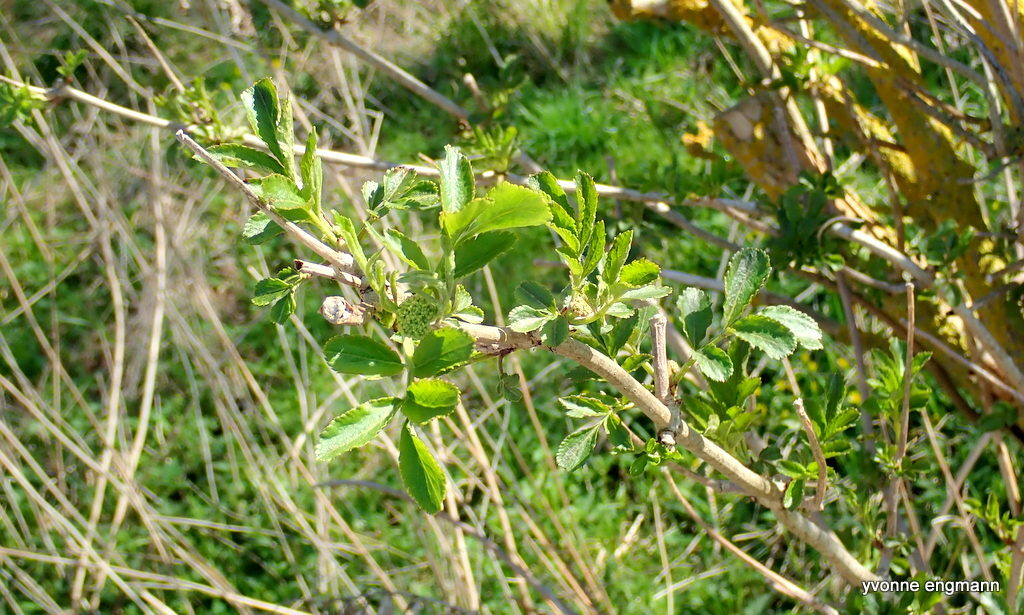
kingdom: Plantae
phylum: Tracheophyta
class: Magnoliopsida
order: Dipsacales
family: Viburnaceae
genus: Sambucus
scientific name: Sambucus nigra
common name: Elder
